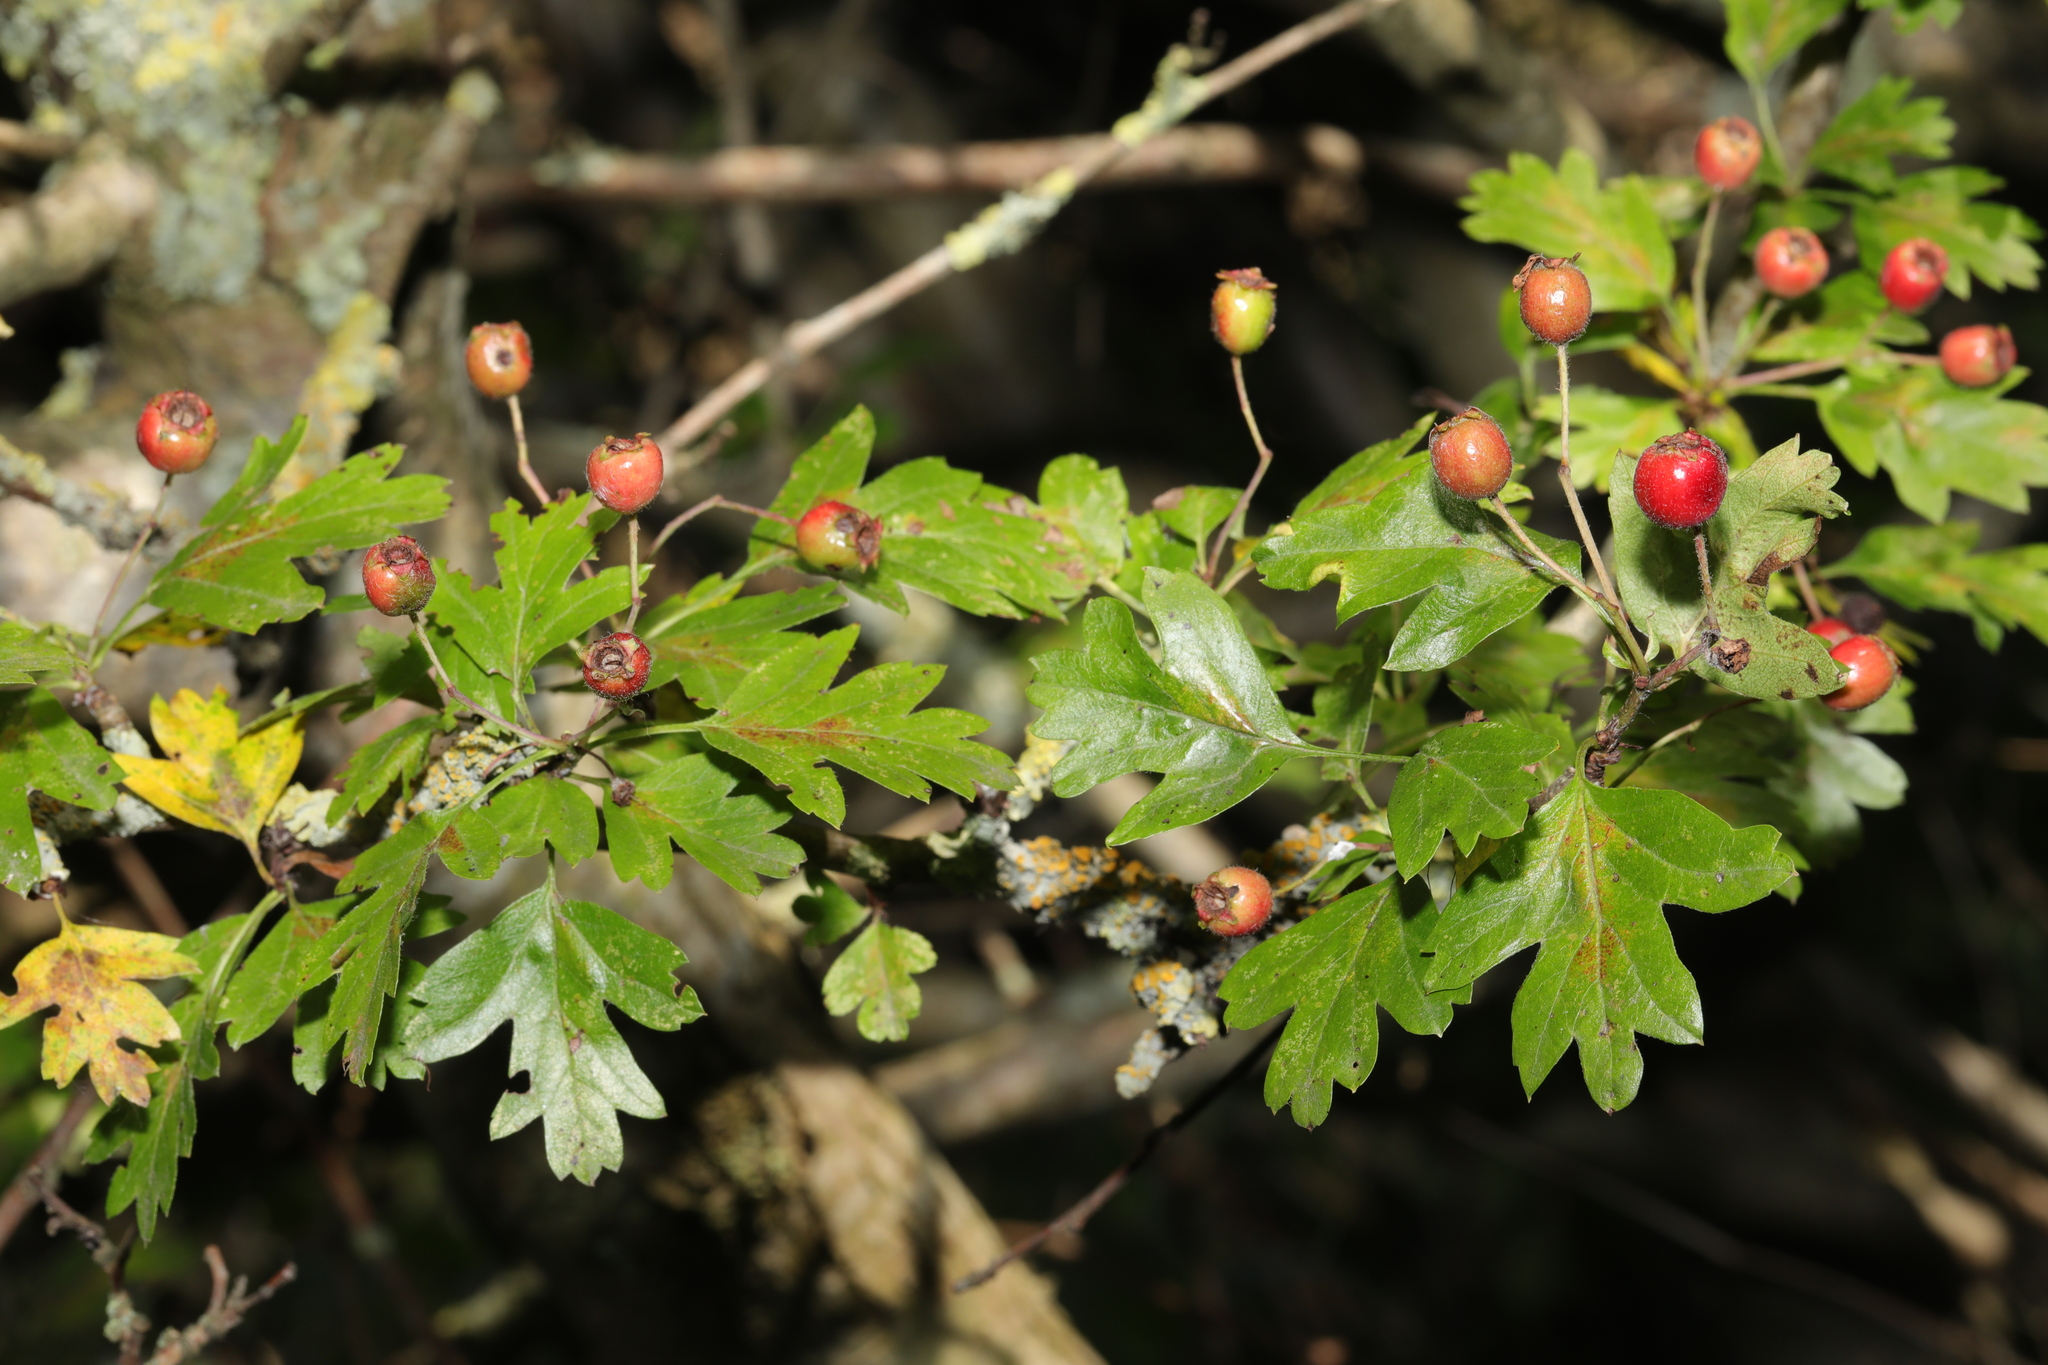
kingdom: Plantae
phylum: Tracheophyta
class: Magnoliopsida
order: Rosales
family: Rosaceae
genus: Crataegus
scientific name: Crataegus monogyna
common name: Hawthorn
